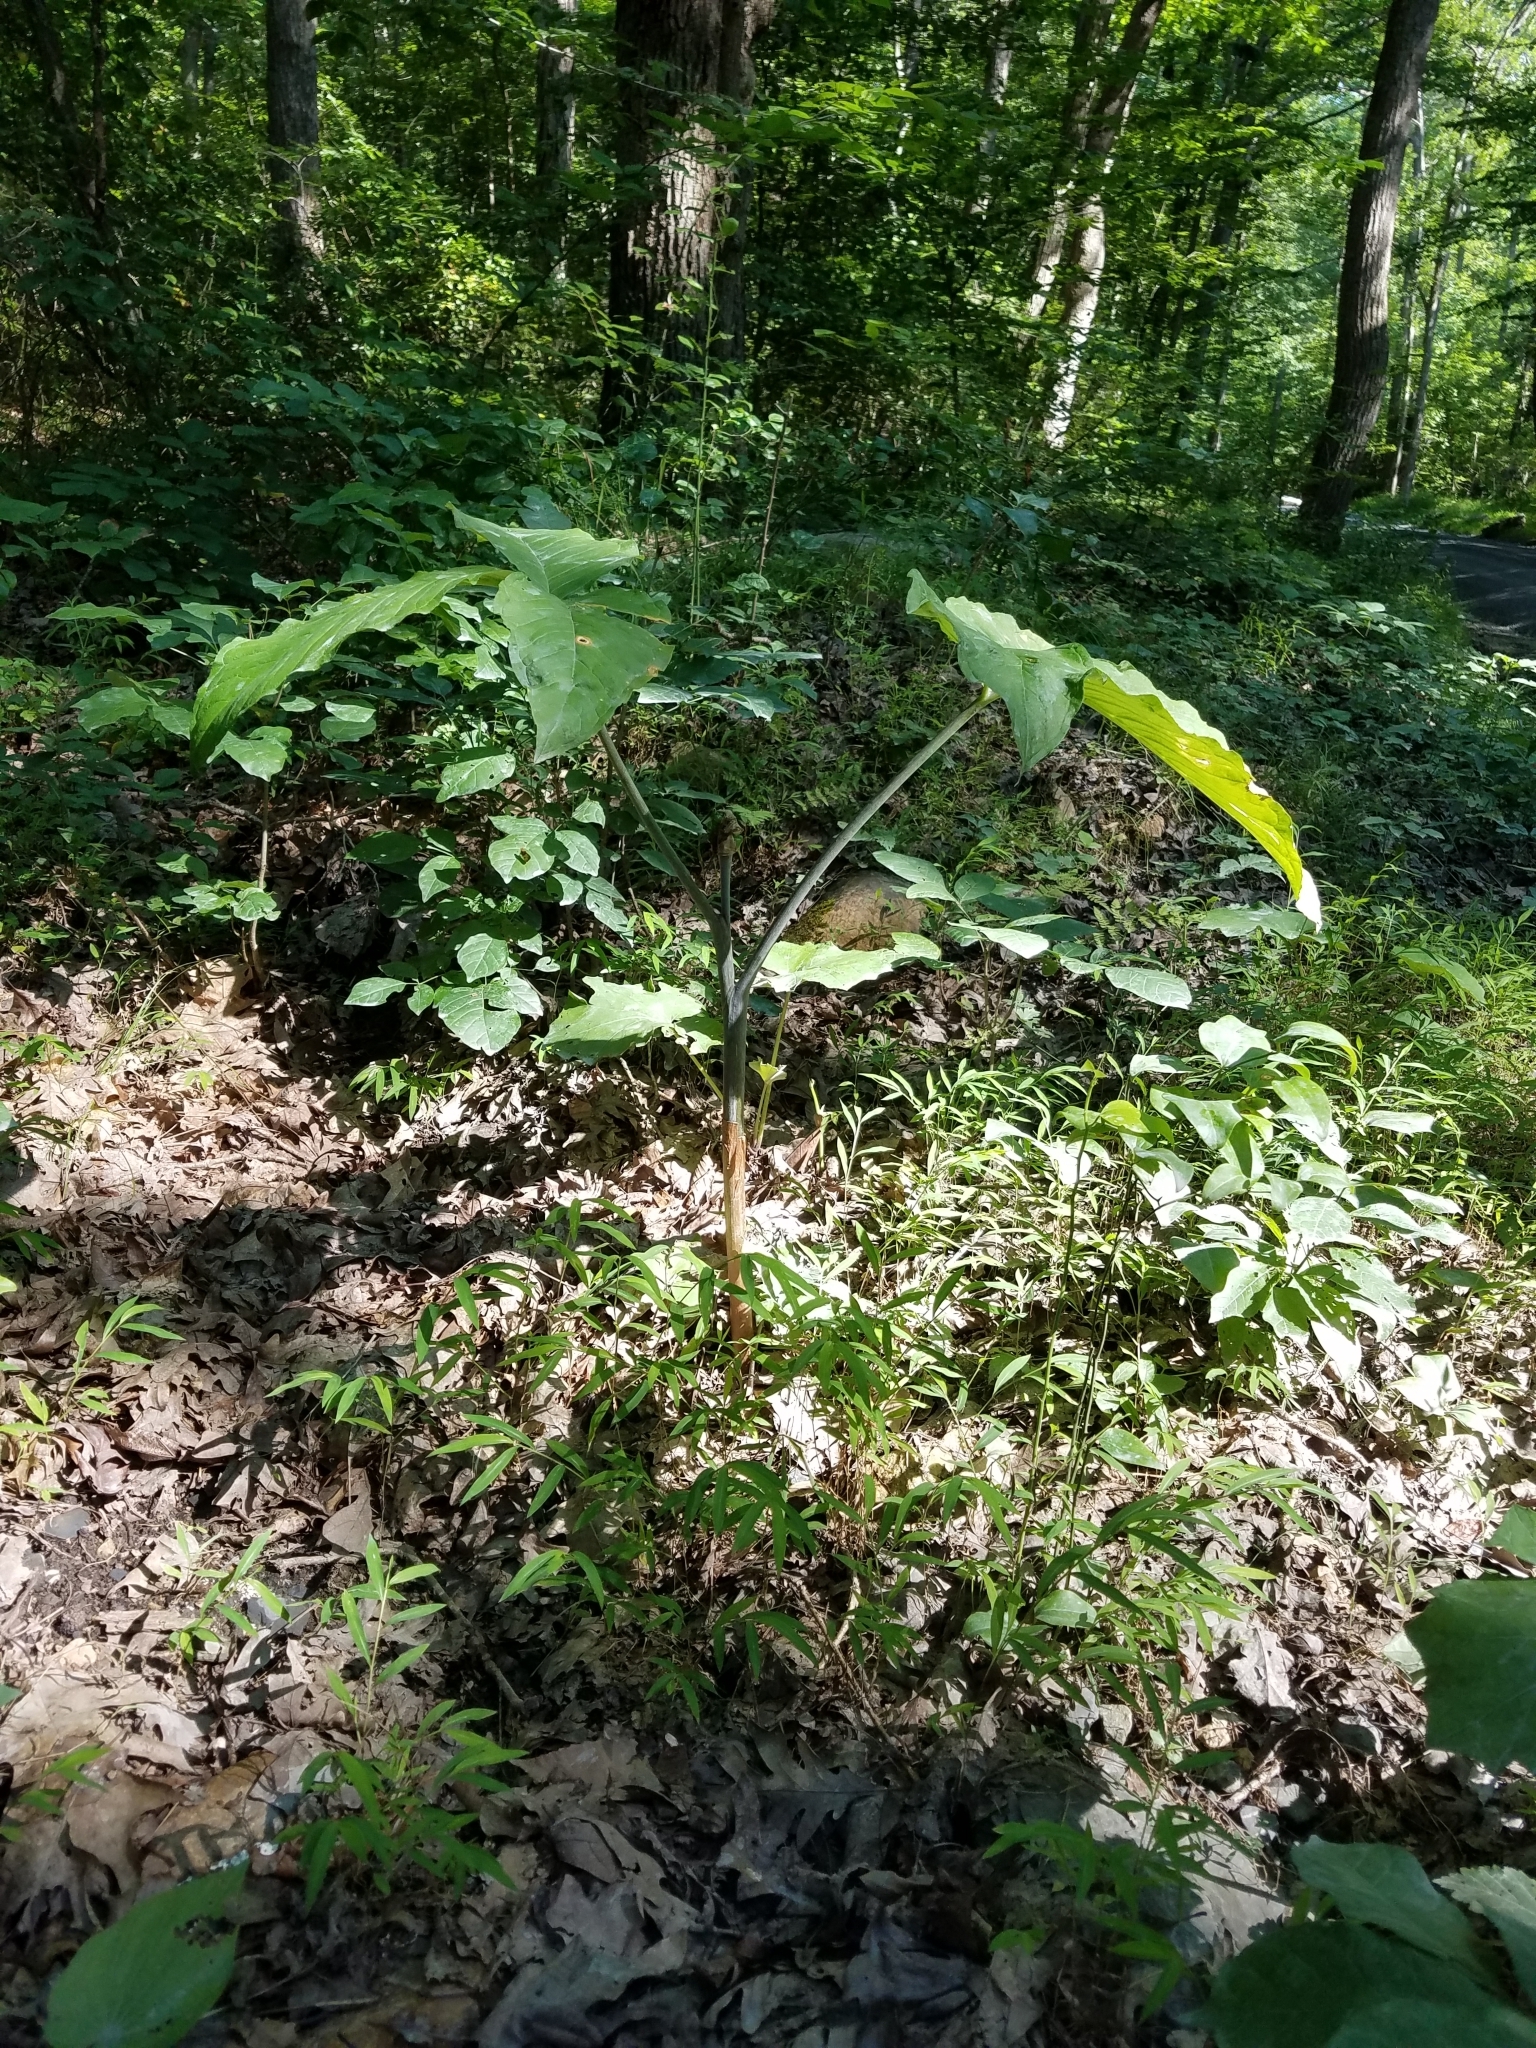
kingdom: Plantae
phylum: Tracheophyta
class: Liliopsida
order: Alismatales
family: Araceae
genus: Arisaema
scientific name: Arisaema triphyllum
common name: Jack-in-the-pulpit
